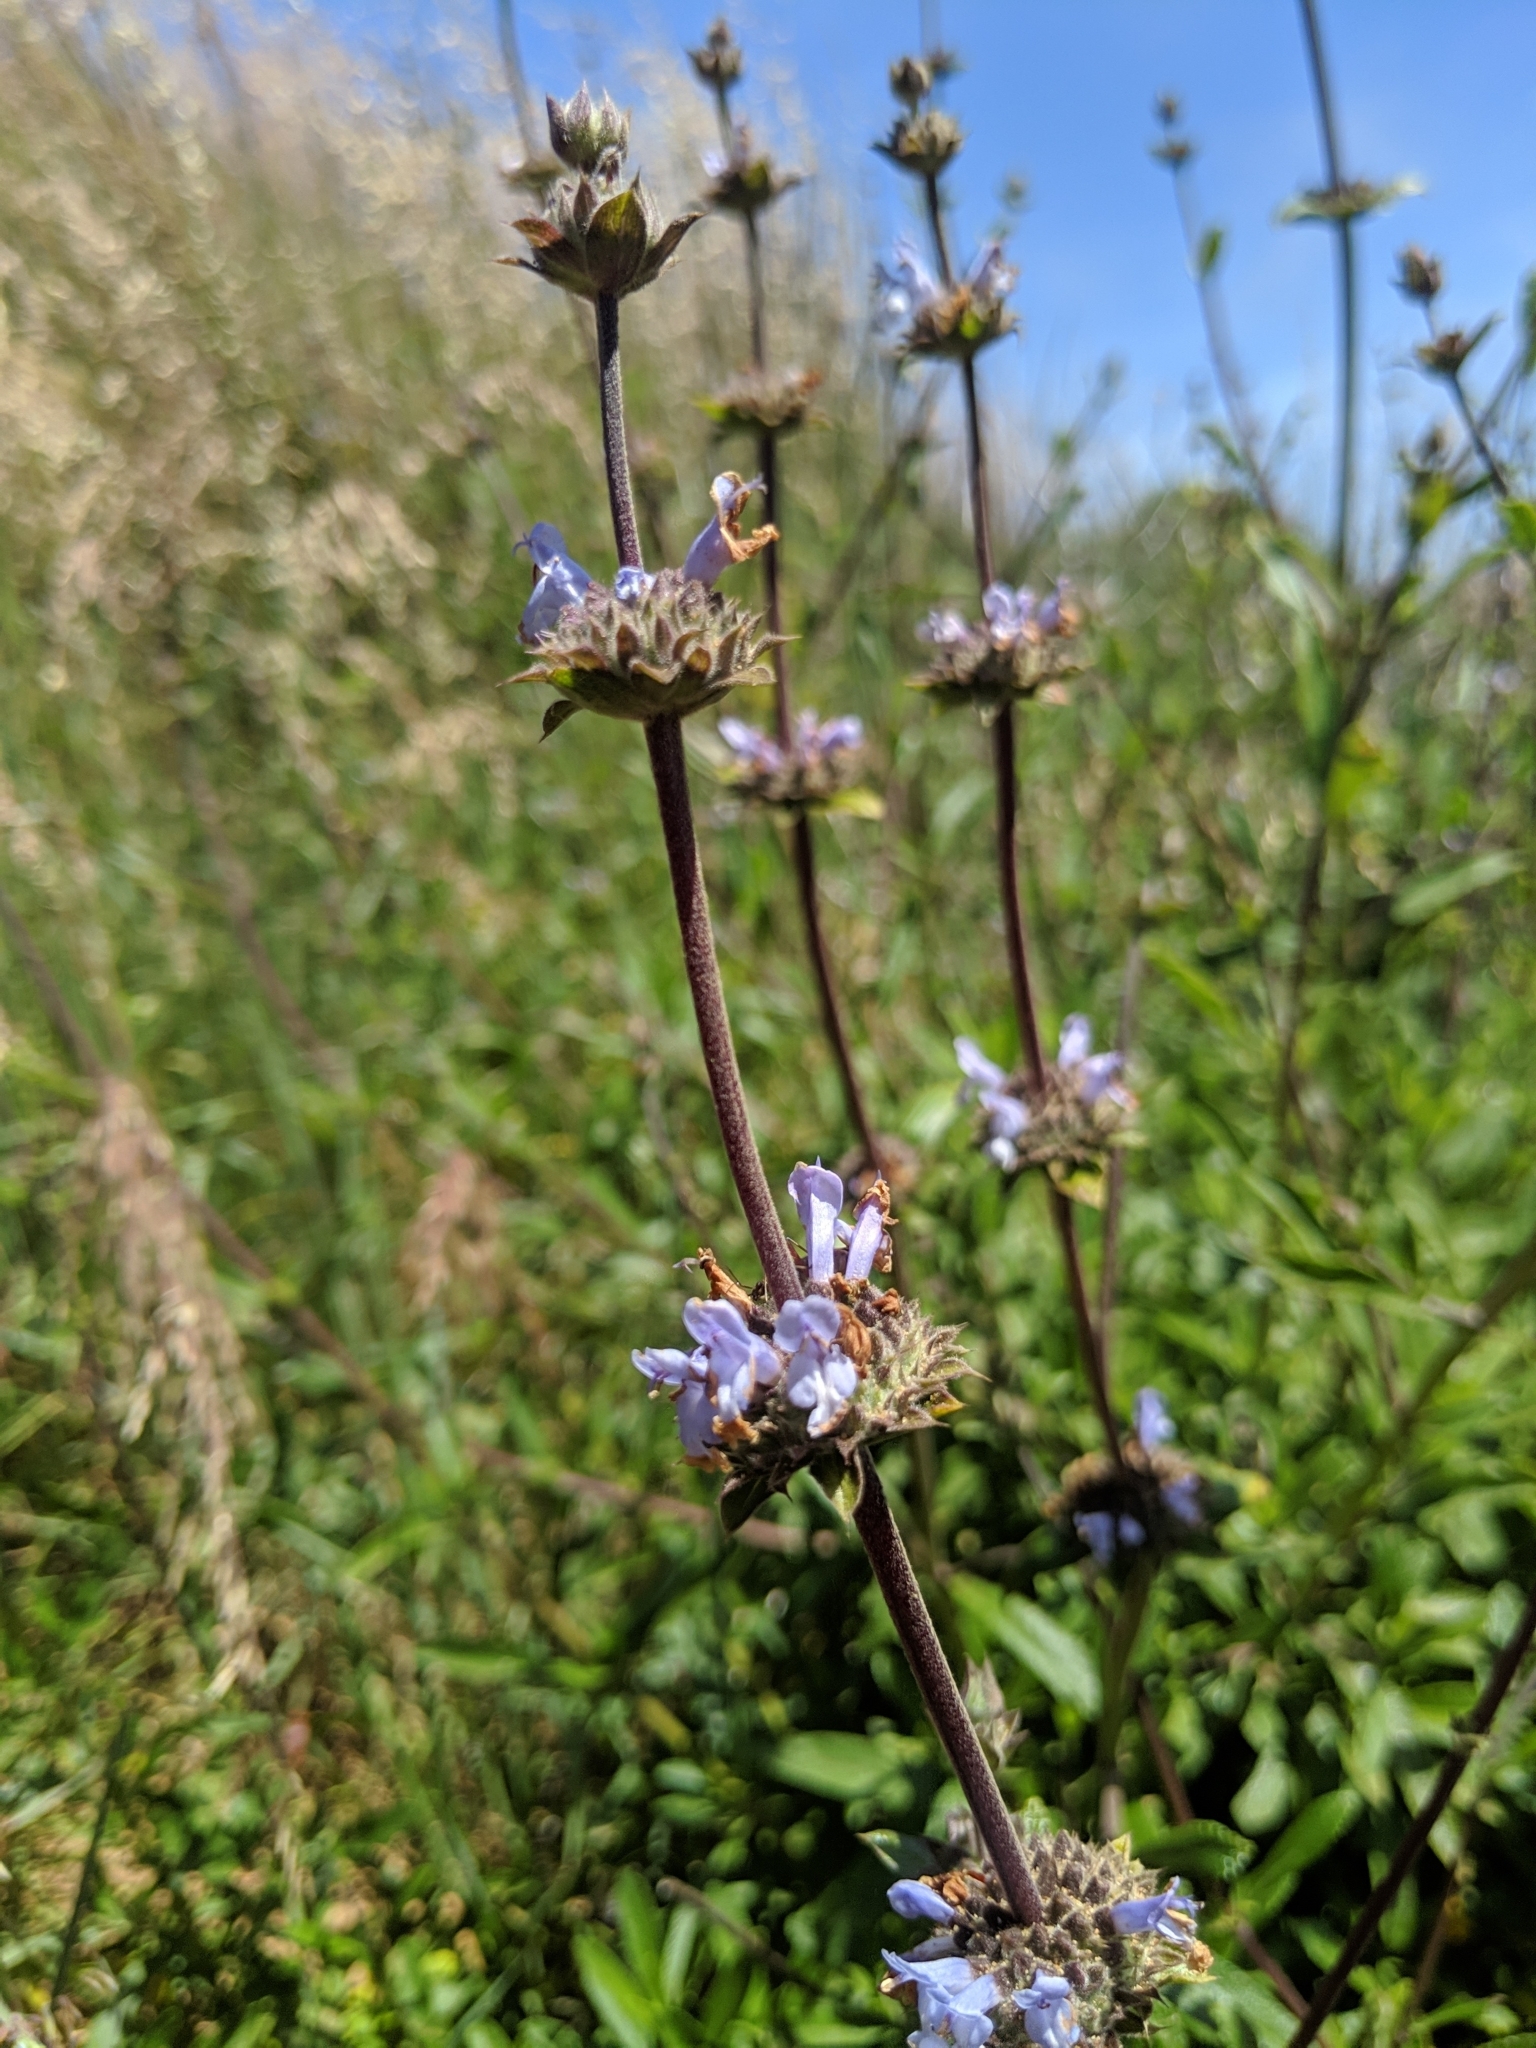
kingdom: Plantae
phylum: Tracheophyta
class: Magnoliopsida
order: Lamiales
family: Lamiaceae
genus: Salvia
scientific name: Salvia mellifera
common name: Black sage
